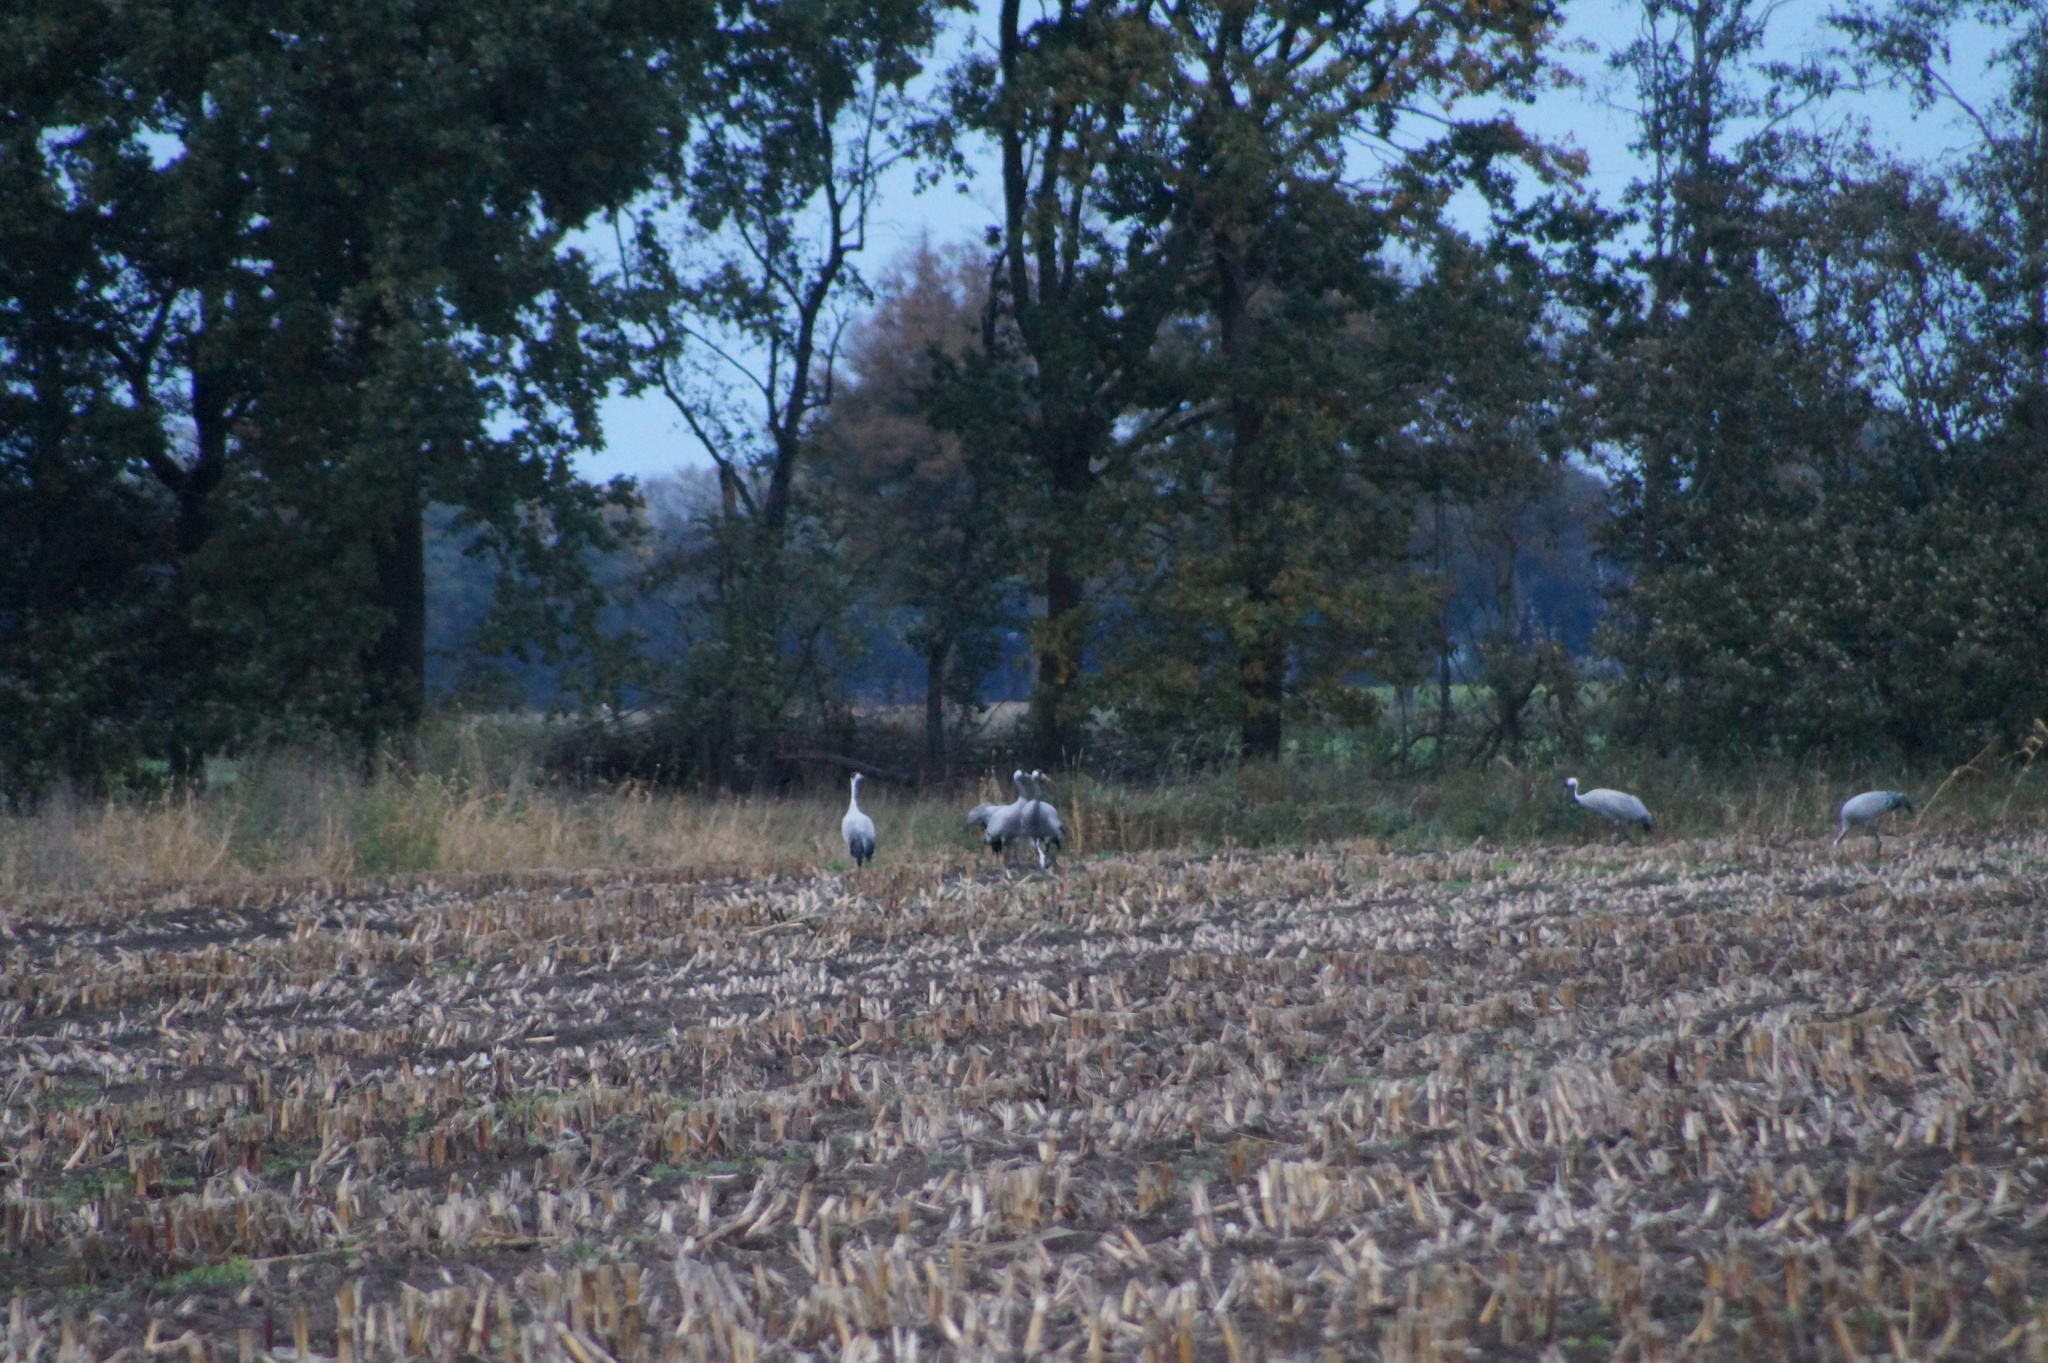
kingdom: Animalia
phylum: Chordata
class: Aves
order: Gruiformes
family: Gruidae
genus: Grus
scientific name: Grus grus
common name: Common crane
